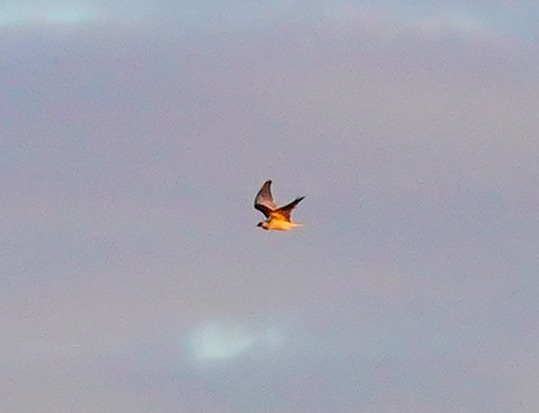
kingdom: Animalia
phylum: Chordata
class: Aves
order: Accipitriformes
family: Accipitridae
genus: Elanus
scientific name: Elanus leucurus
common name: White-tailed kite
